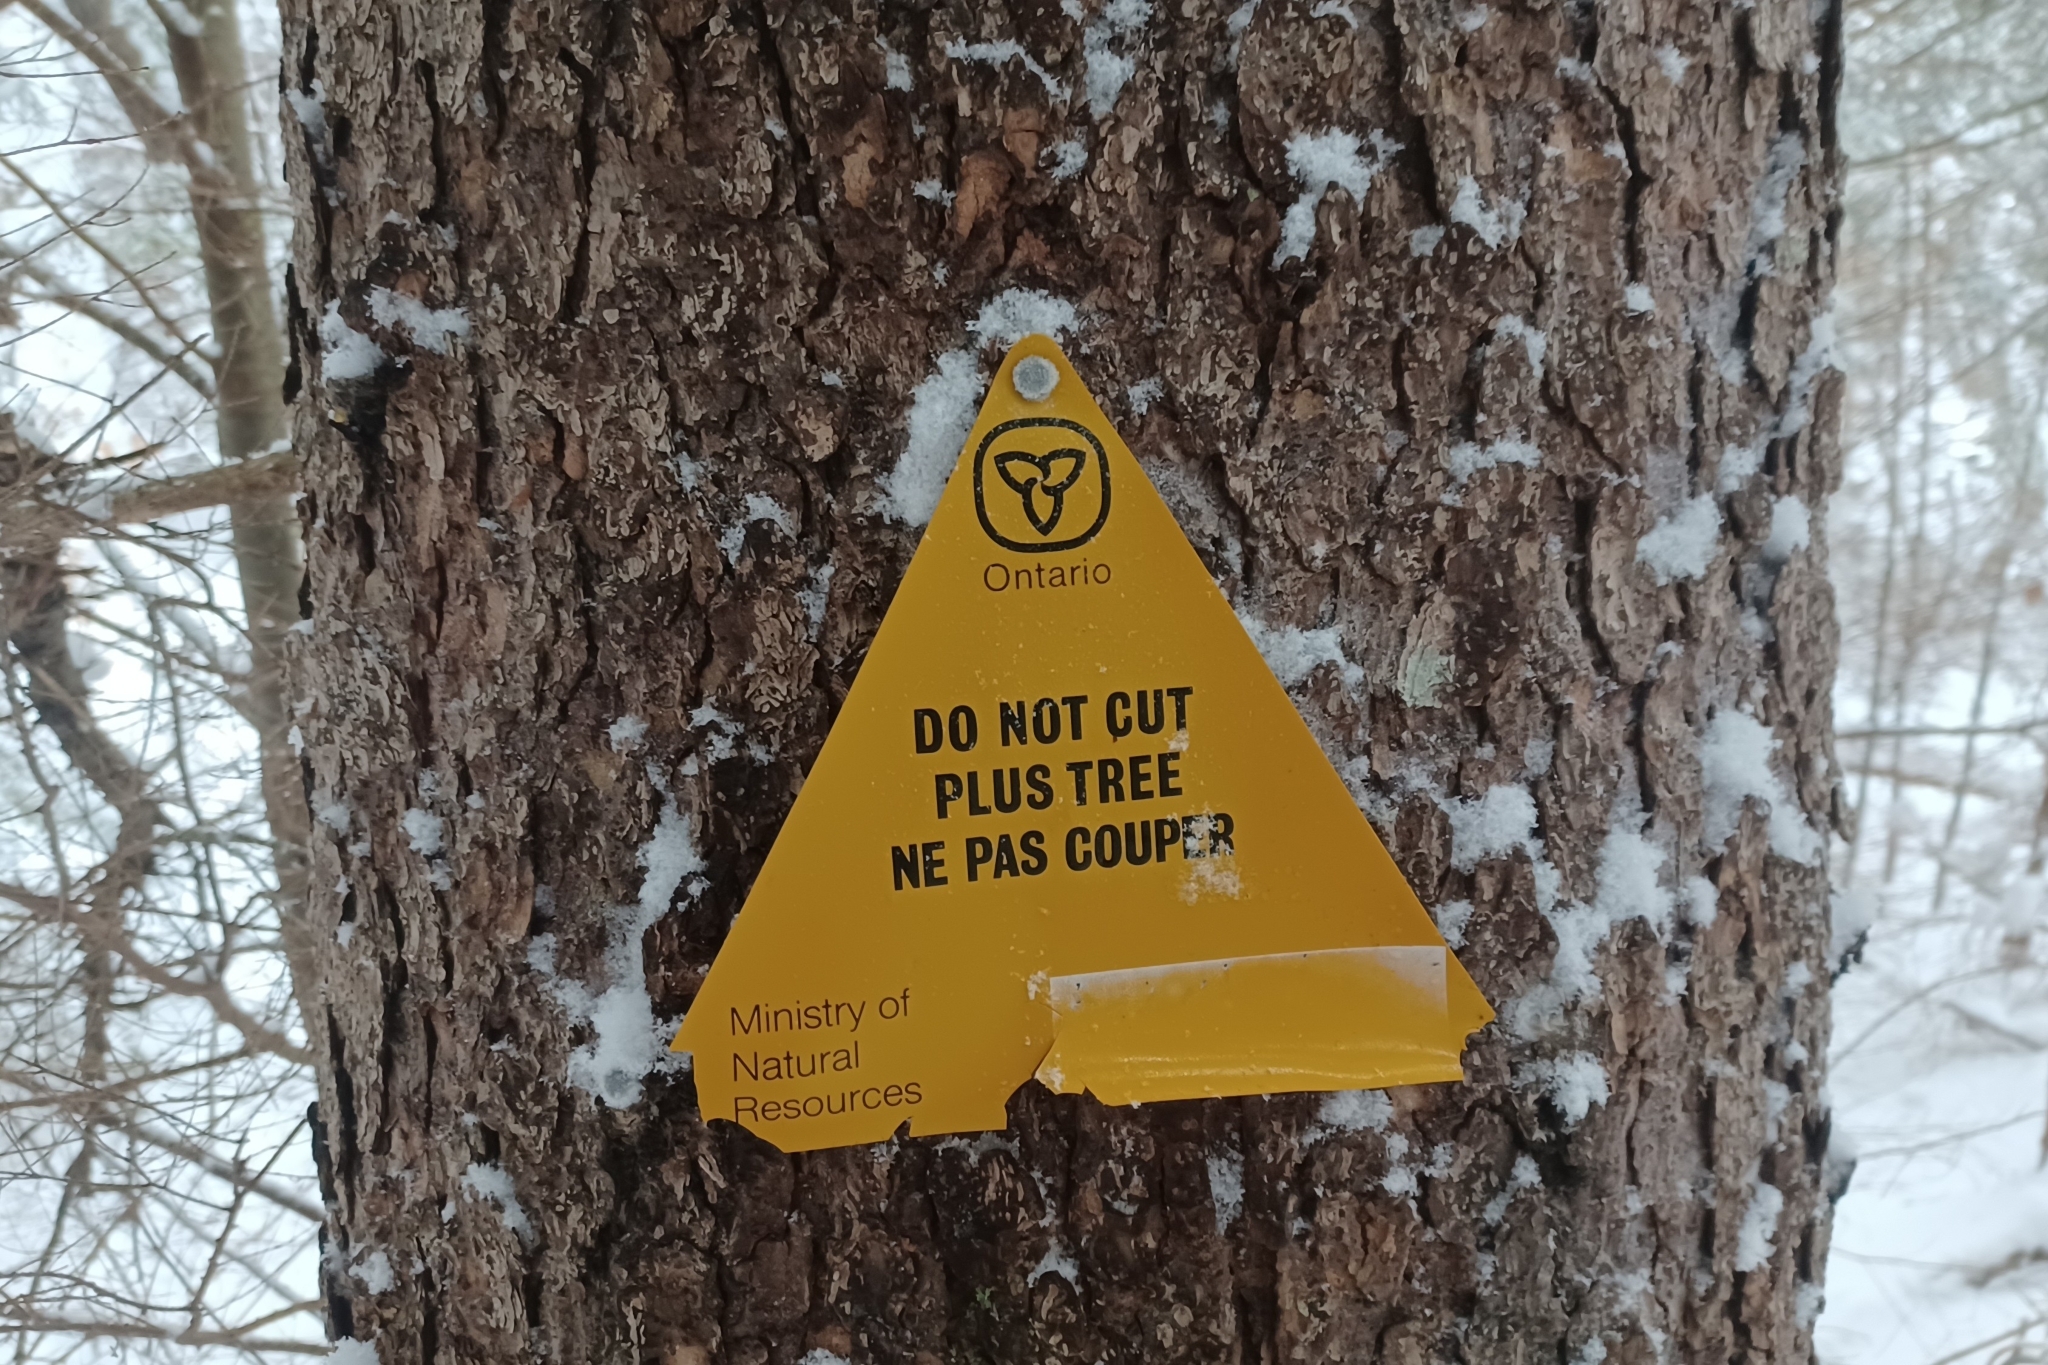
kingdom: Plantae
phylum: Tracheophyta
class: Pinopsida
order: Pinales
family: Pinaceae
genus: Picea
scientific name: Picea rubens
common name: Red spruce
